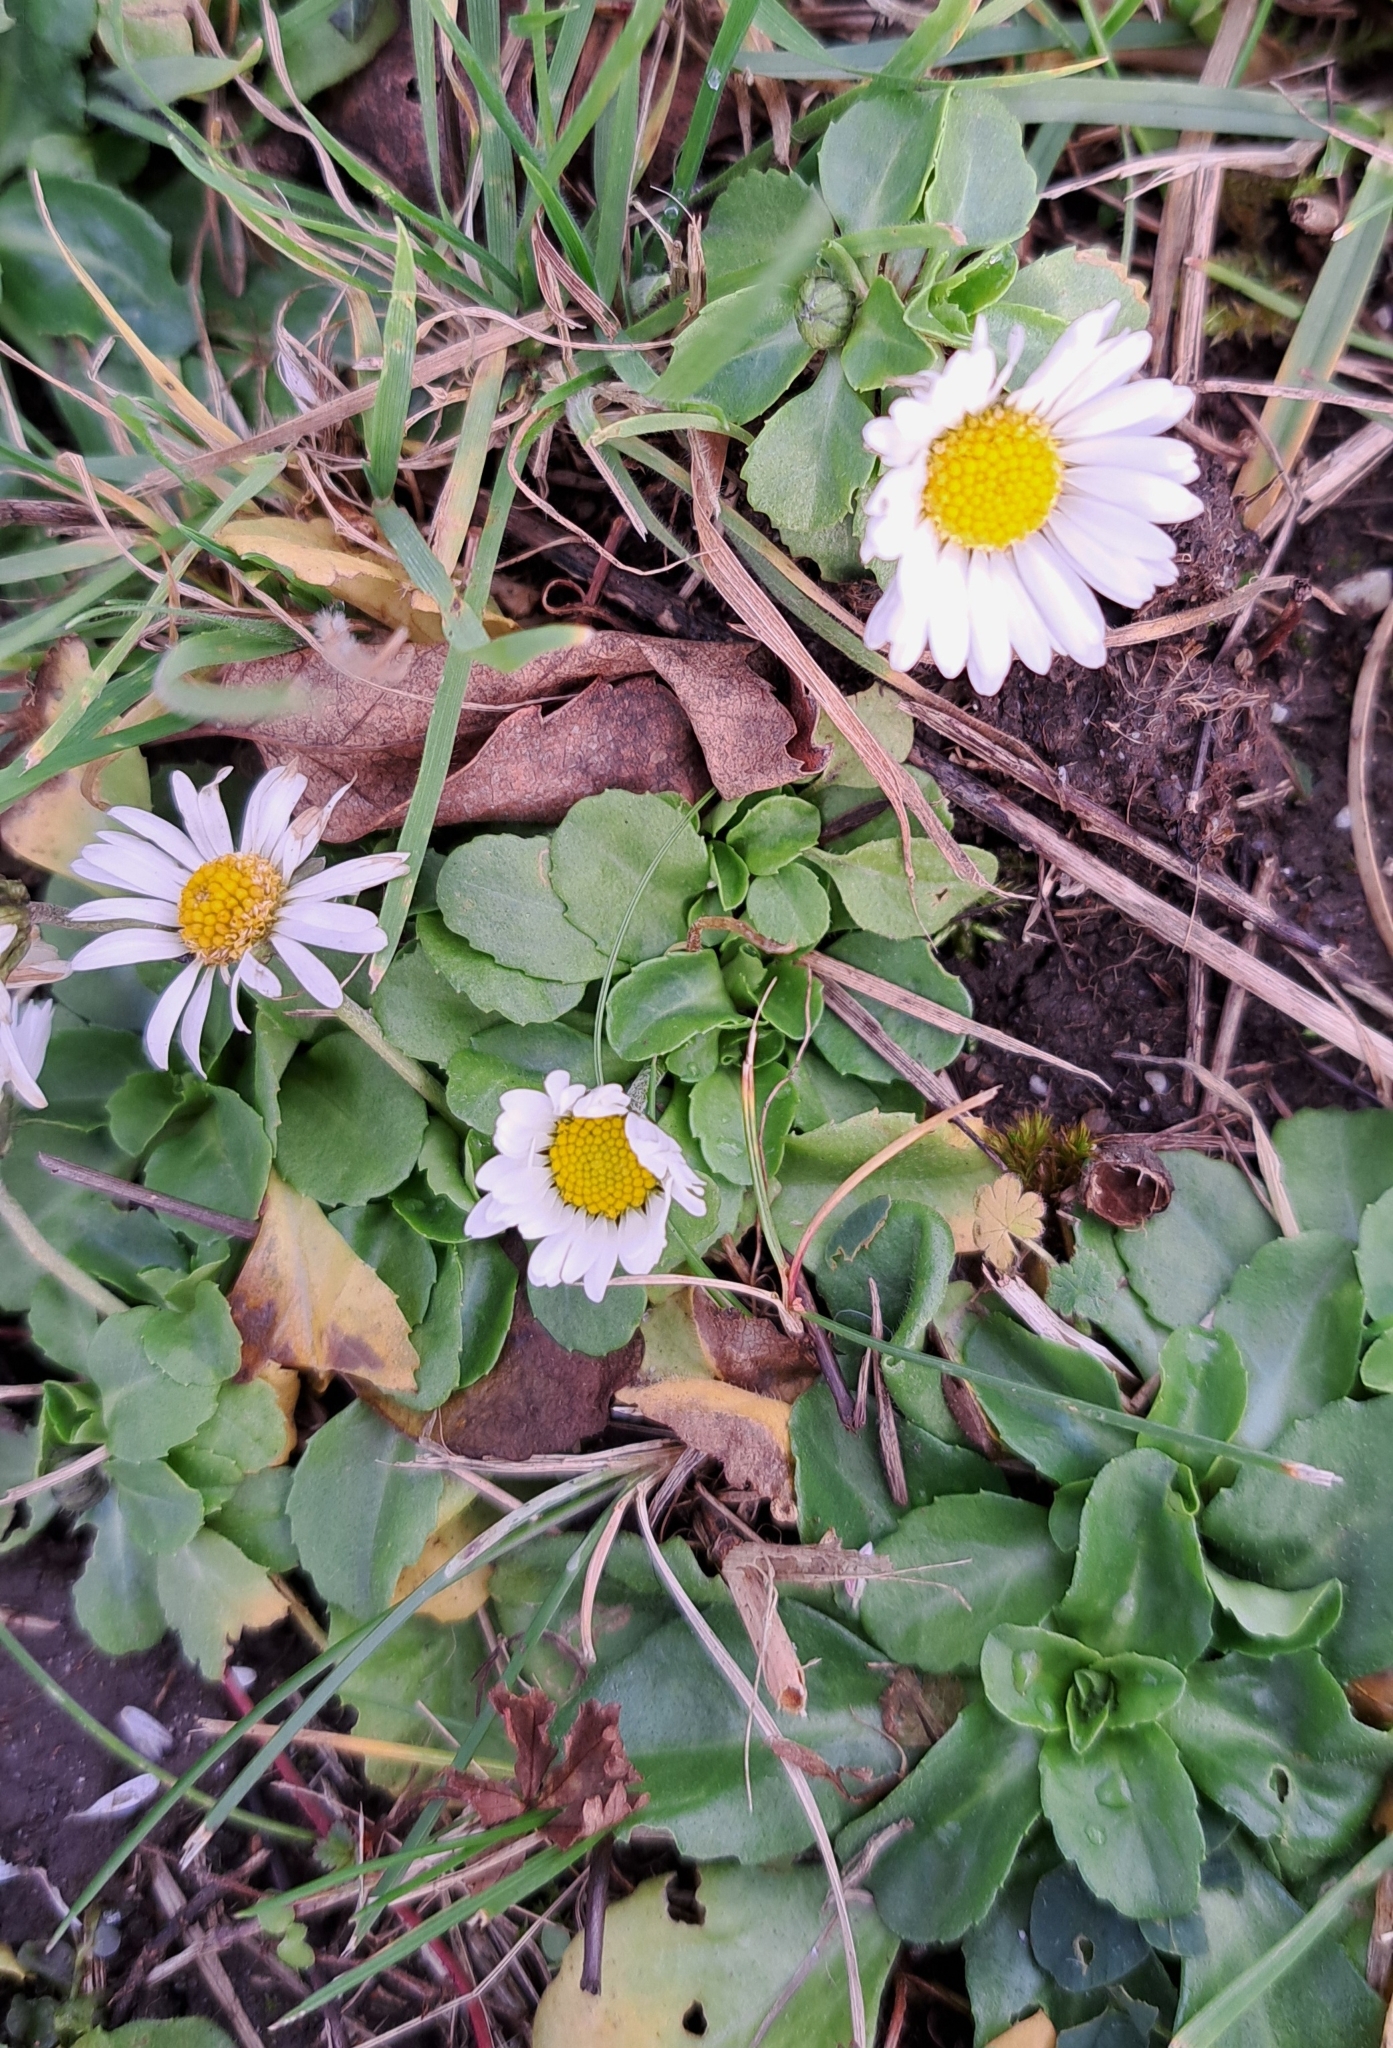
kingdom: Plantae
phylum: Tracheophyta
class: Magnoliopsida
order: Asterales
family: Asteraceae
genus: Bellis
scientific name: Bellis perennis
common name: Lawndaisy
